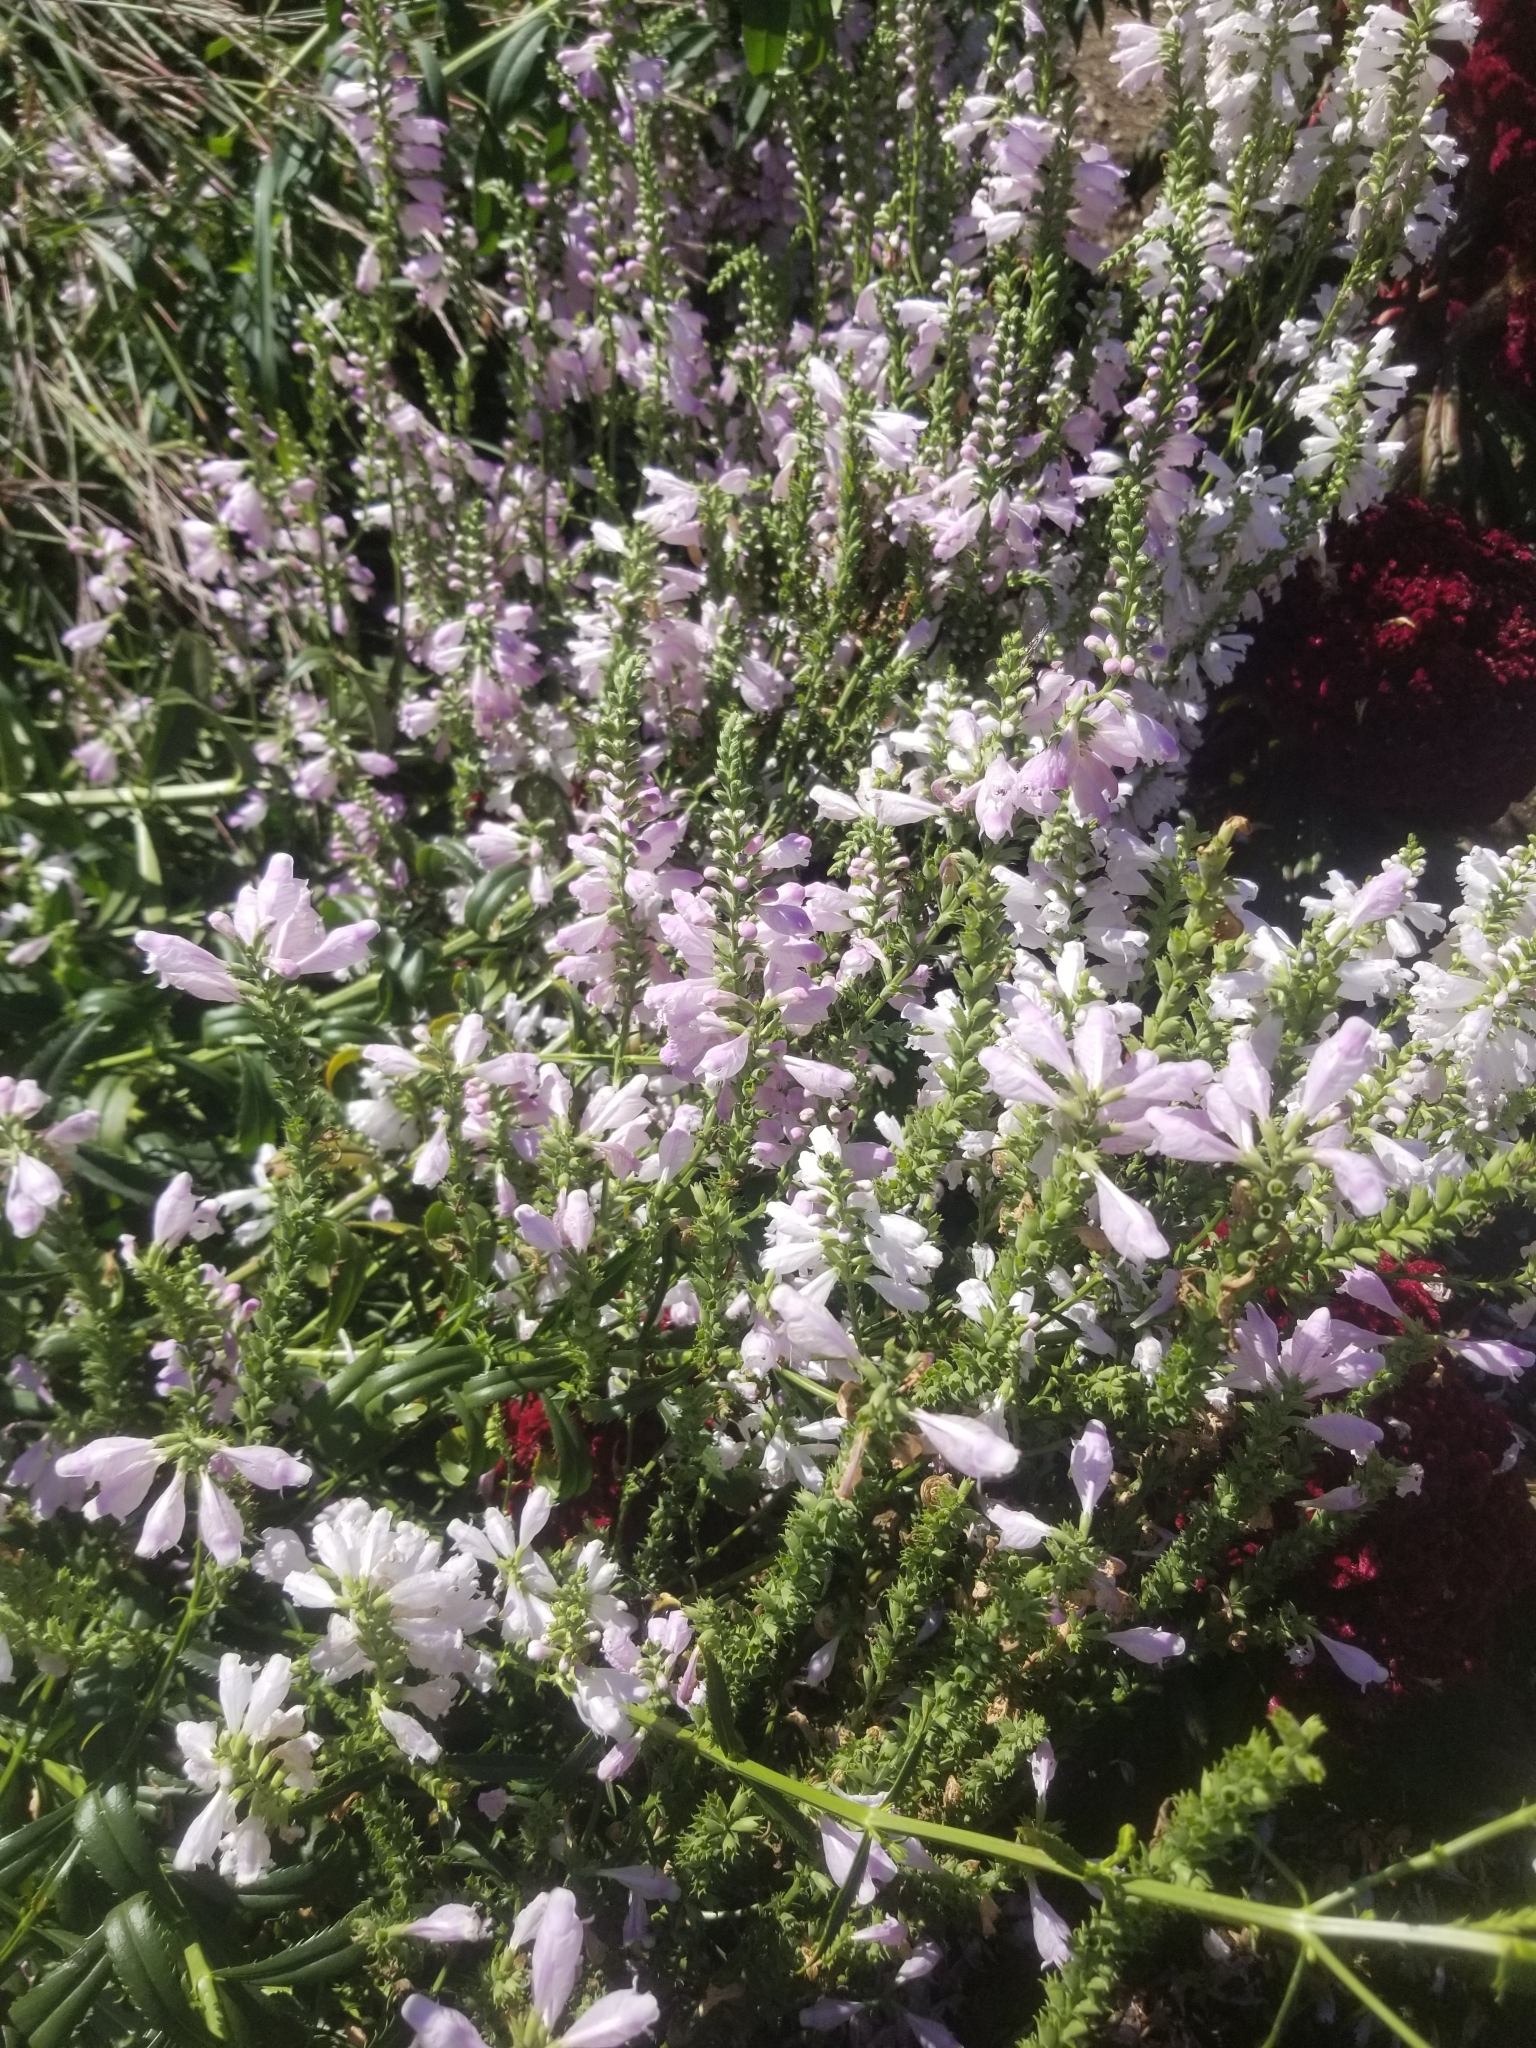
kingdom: Plantae
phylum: Tracheophyta
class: Magnoliopsida
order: Lamiales
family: Lamiaceae
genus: Physostegia
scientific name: Physostegia virginiana
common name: Obedient-plant
